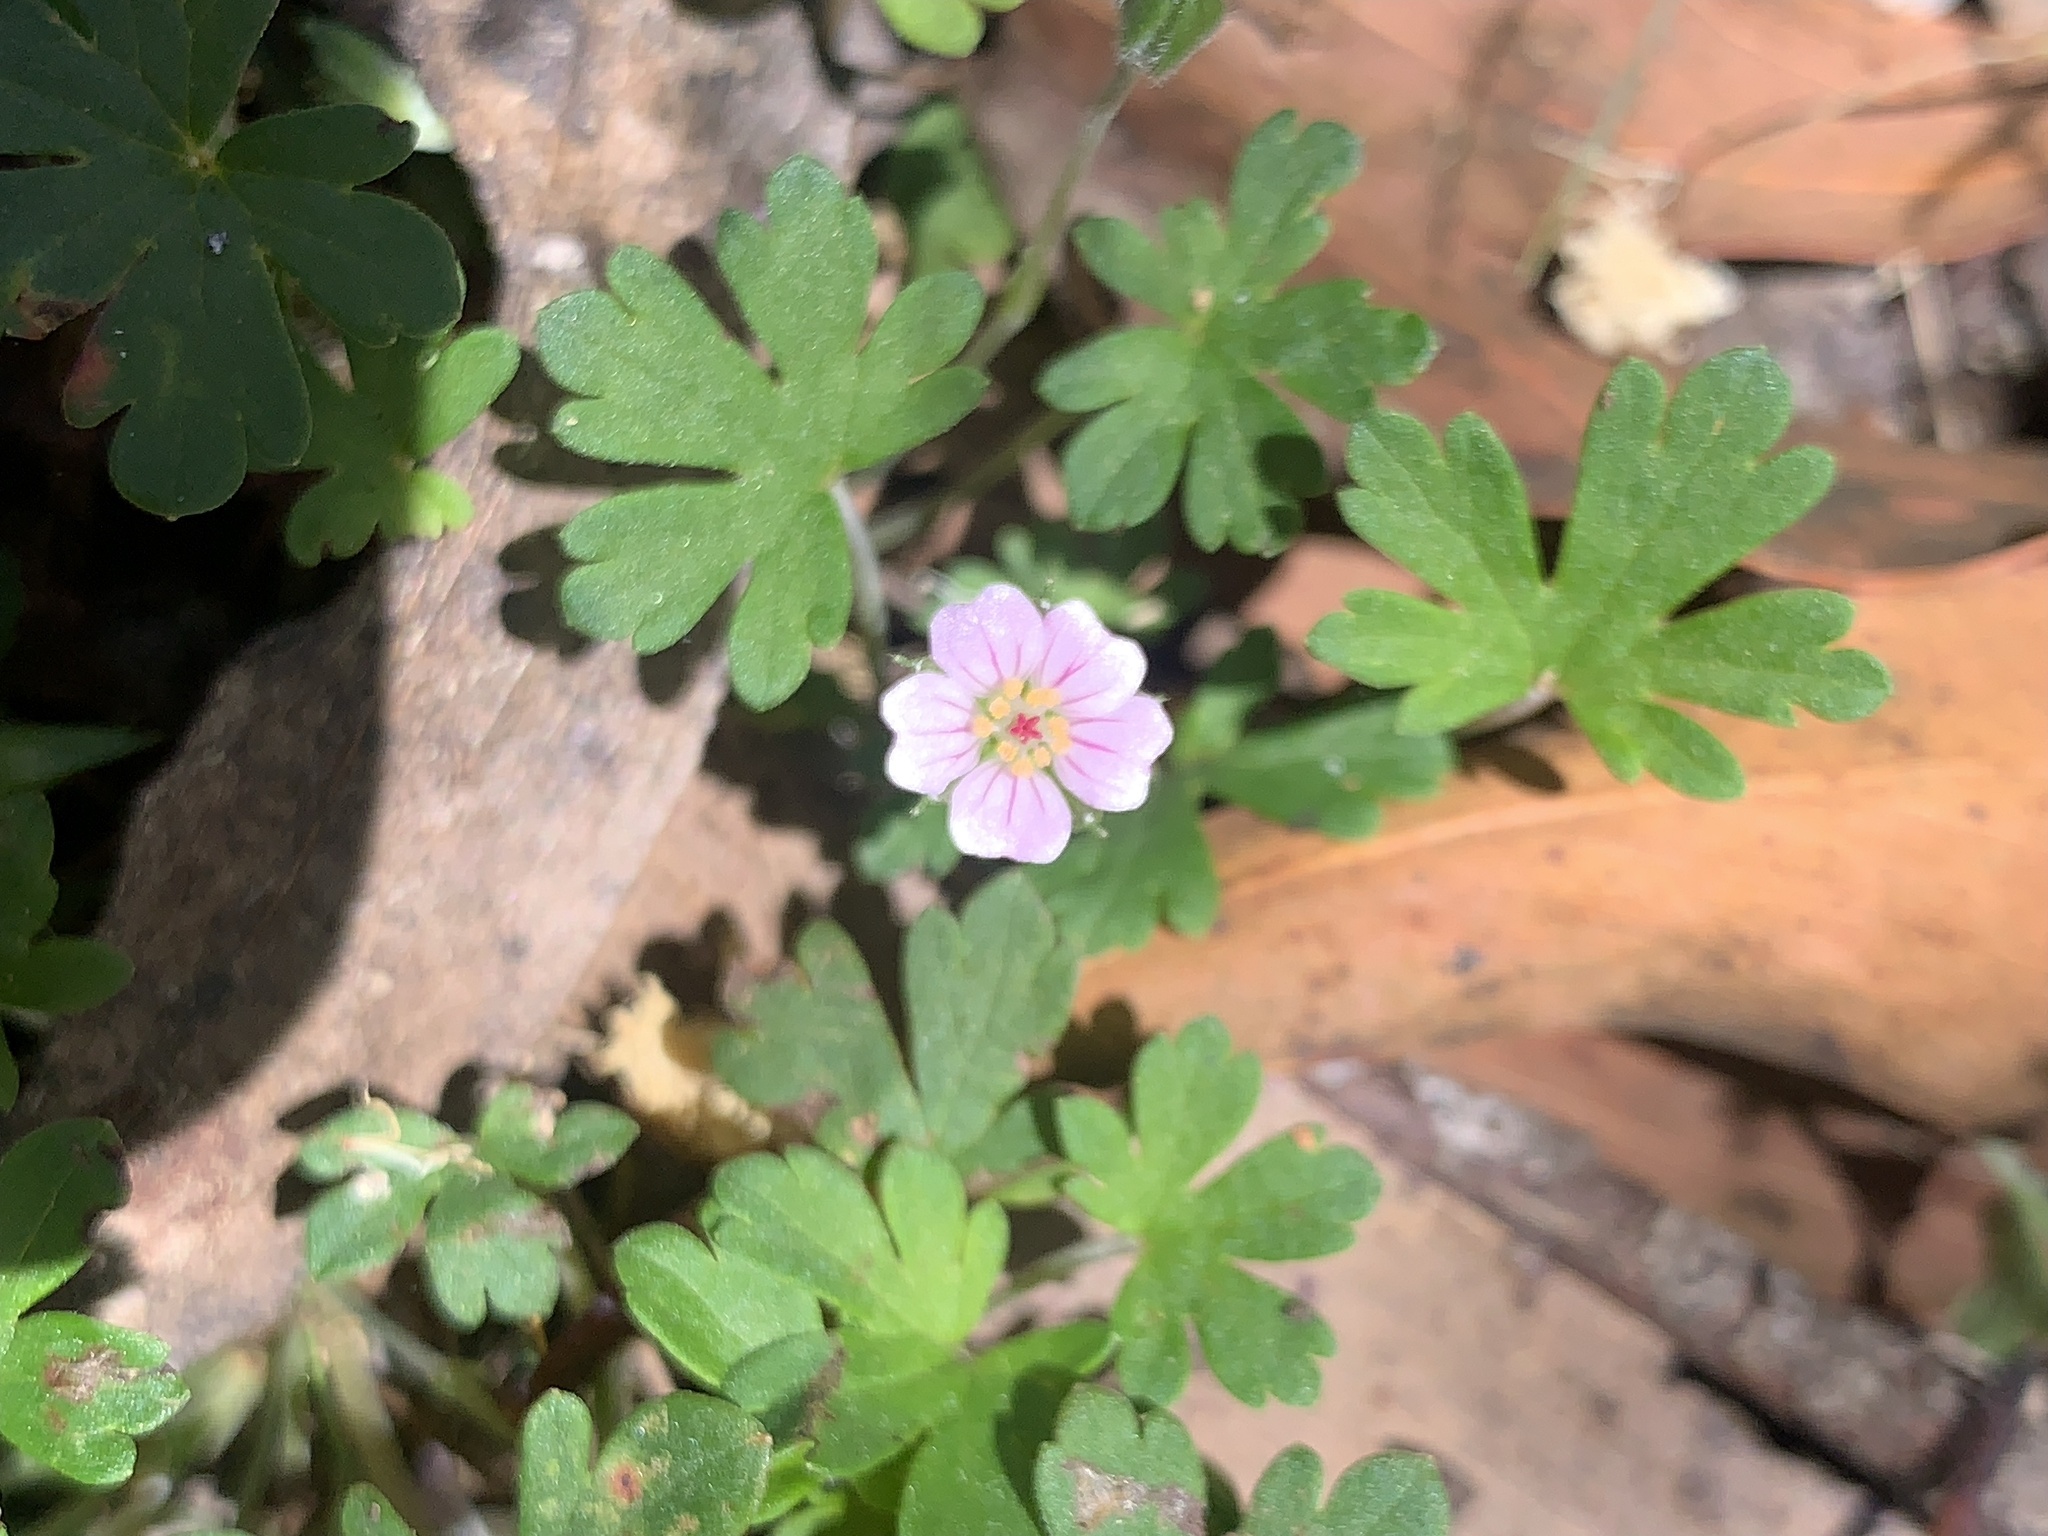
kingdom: Plantae
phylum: Tracheophyta
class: Magnoliopsida
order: Geraniales
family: Geraniaceae
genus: Geranium
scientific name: Geranium potentilloides
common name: Cinquefoil geranium
